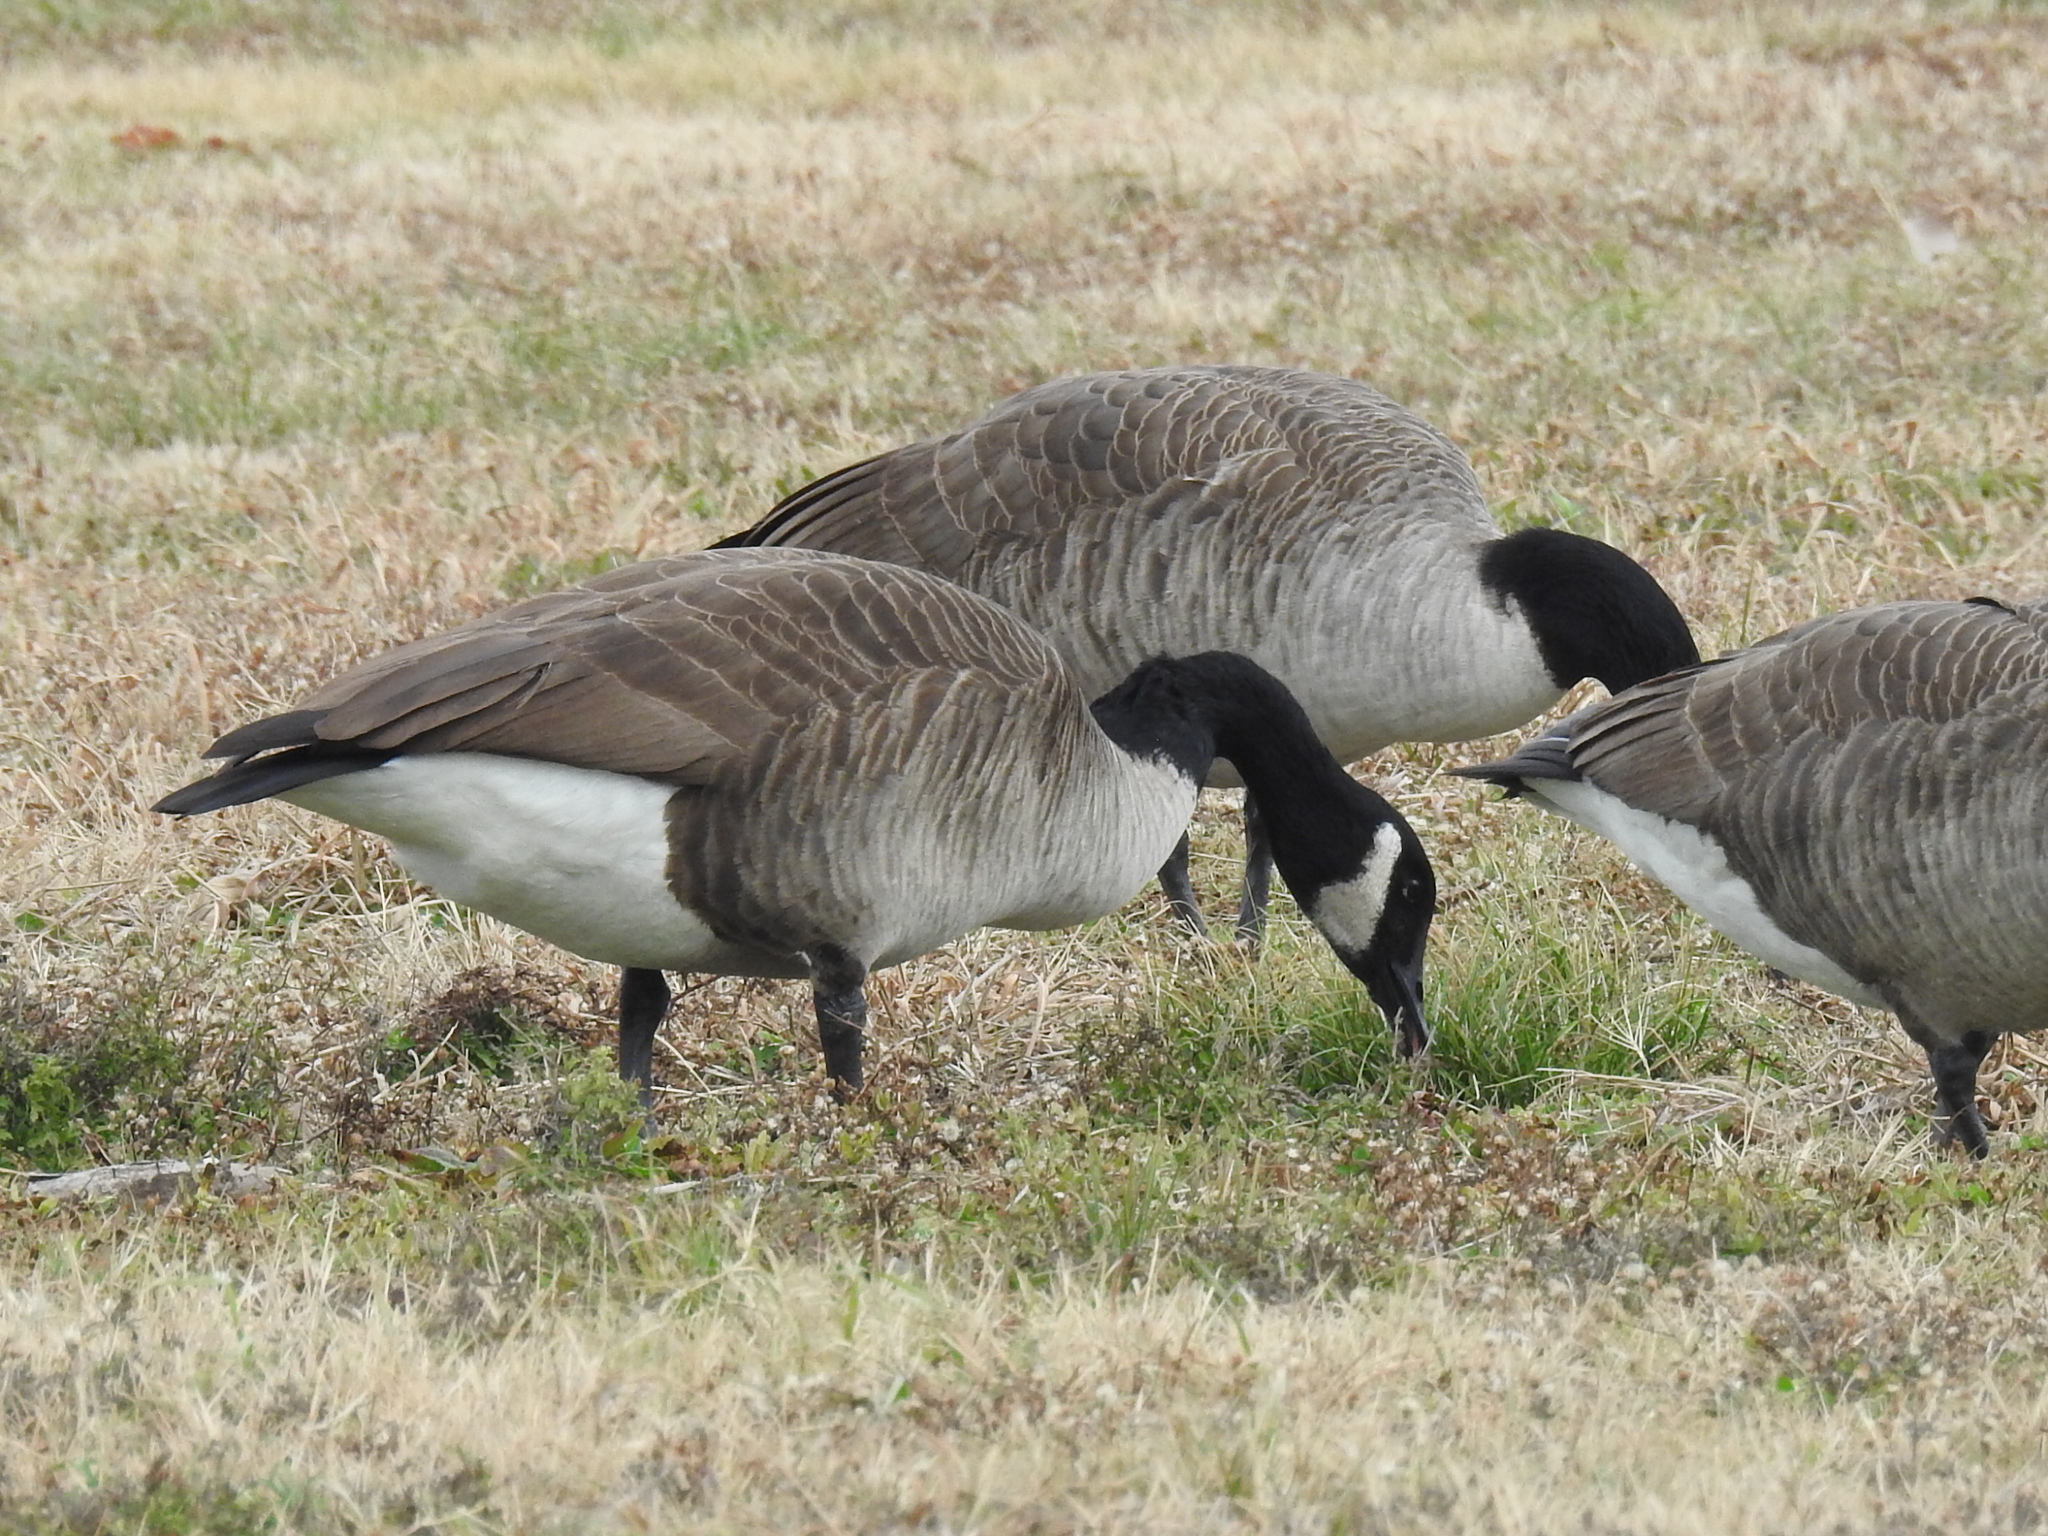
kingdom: Animalia
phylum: Chordata
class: Aves
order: Anseriformes
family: Anatidae
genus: Branta
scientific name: Branta canadensis
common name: Canada goose
